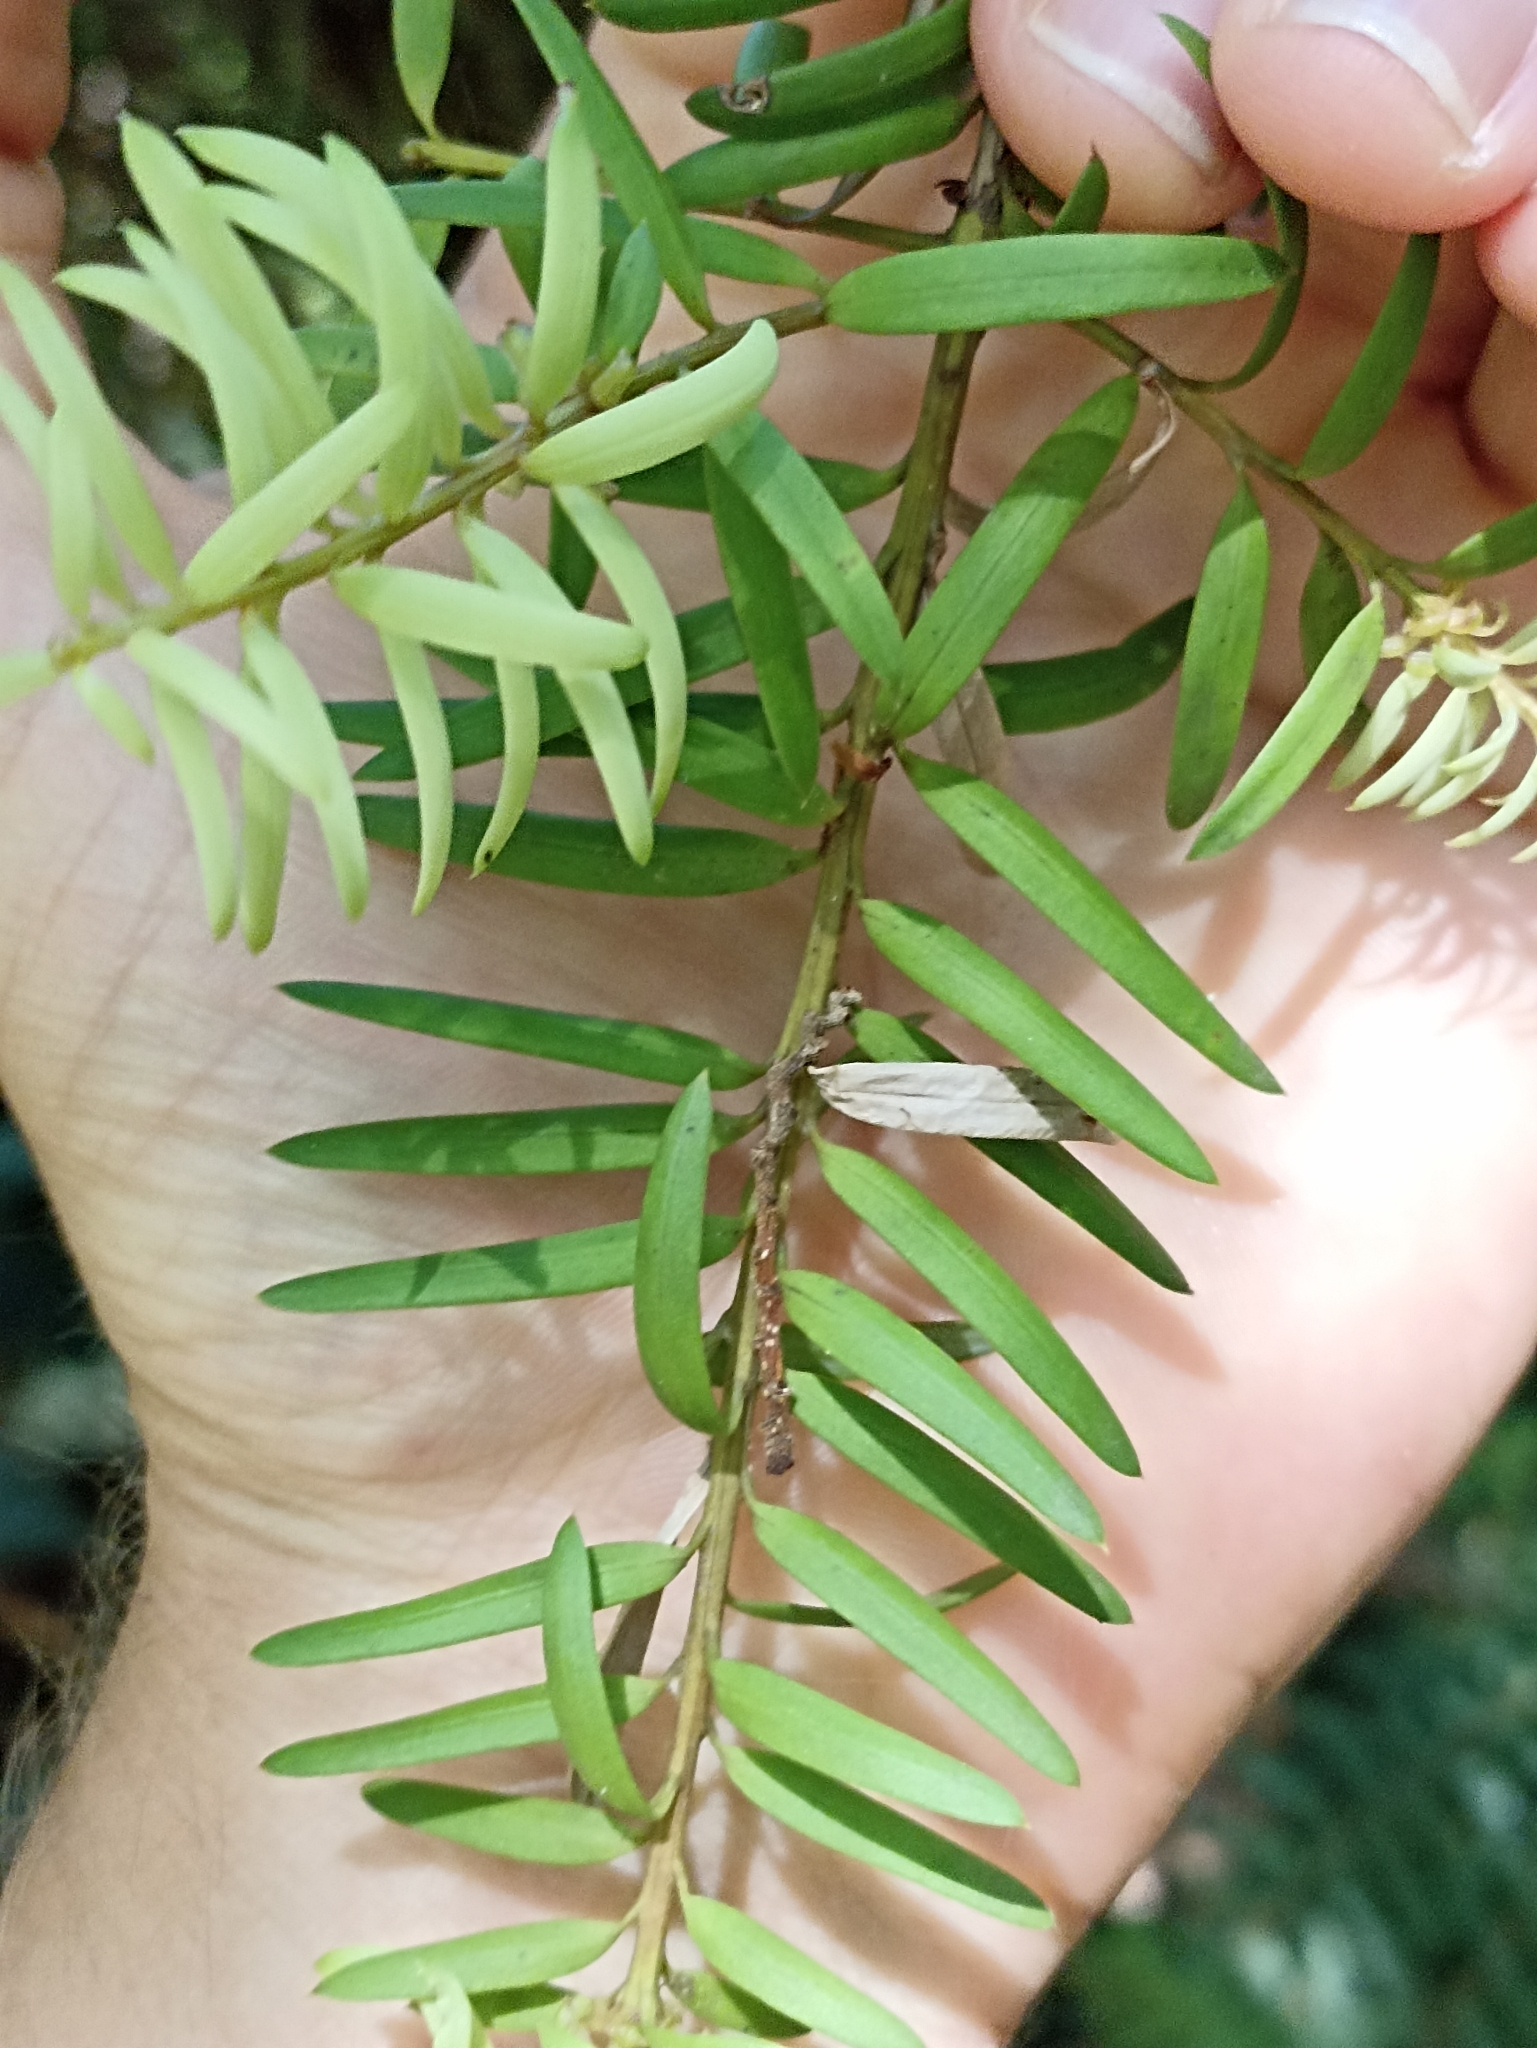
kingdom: Plantae
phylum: Tracheophyta
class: Pinopsida
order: Pinales
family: Podocarpaceae
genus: Podocarpus
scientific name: Podocarpus laetus
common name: Hall's totara
